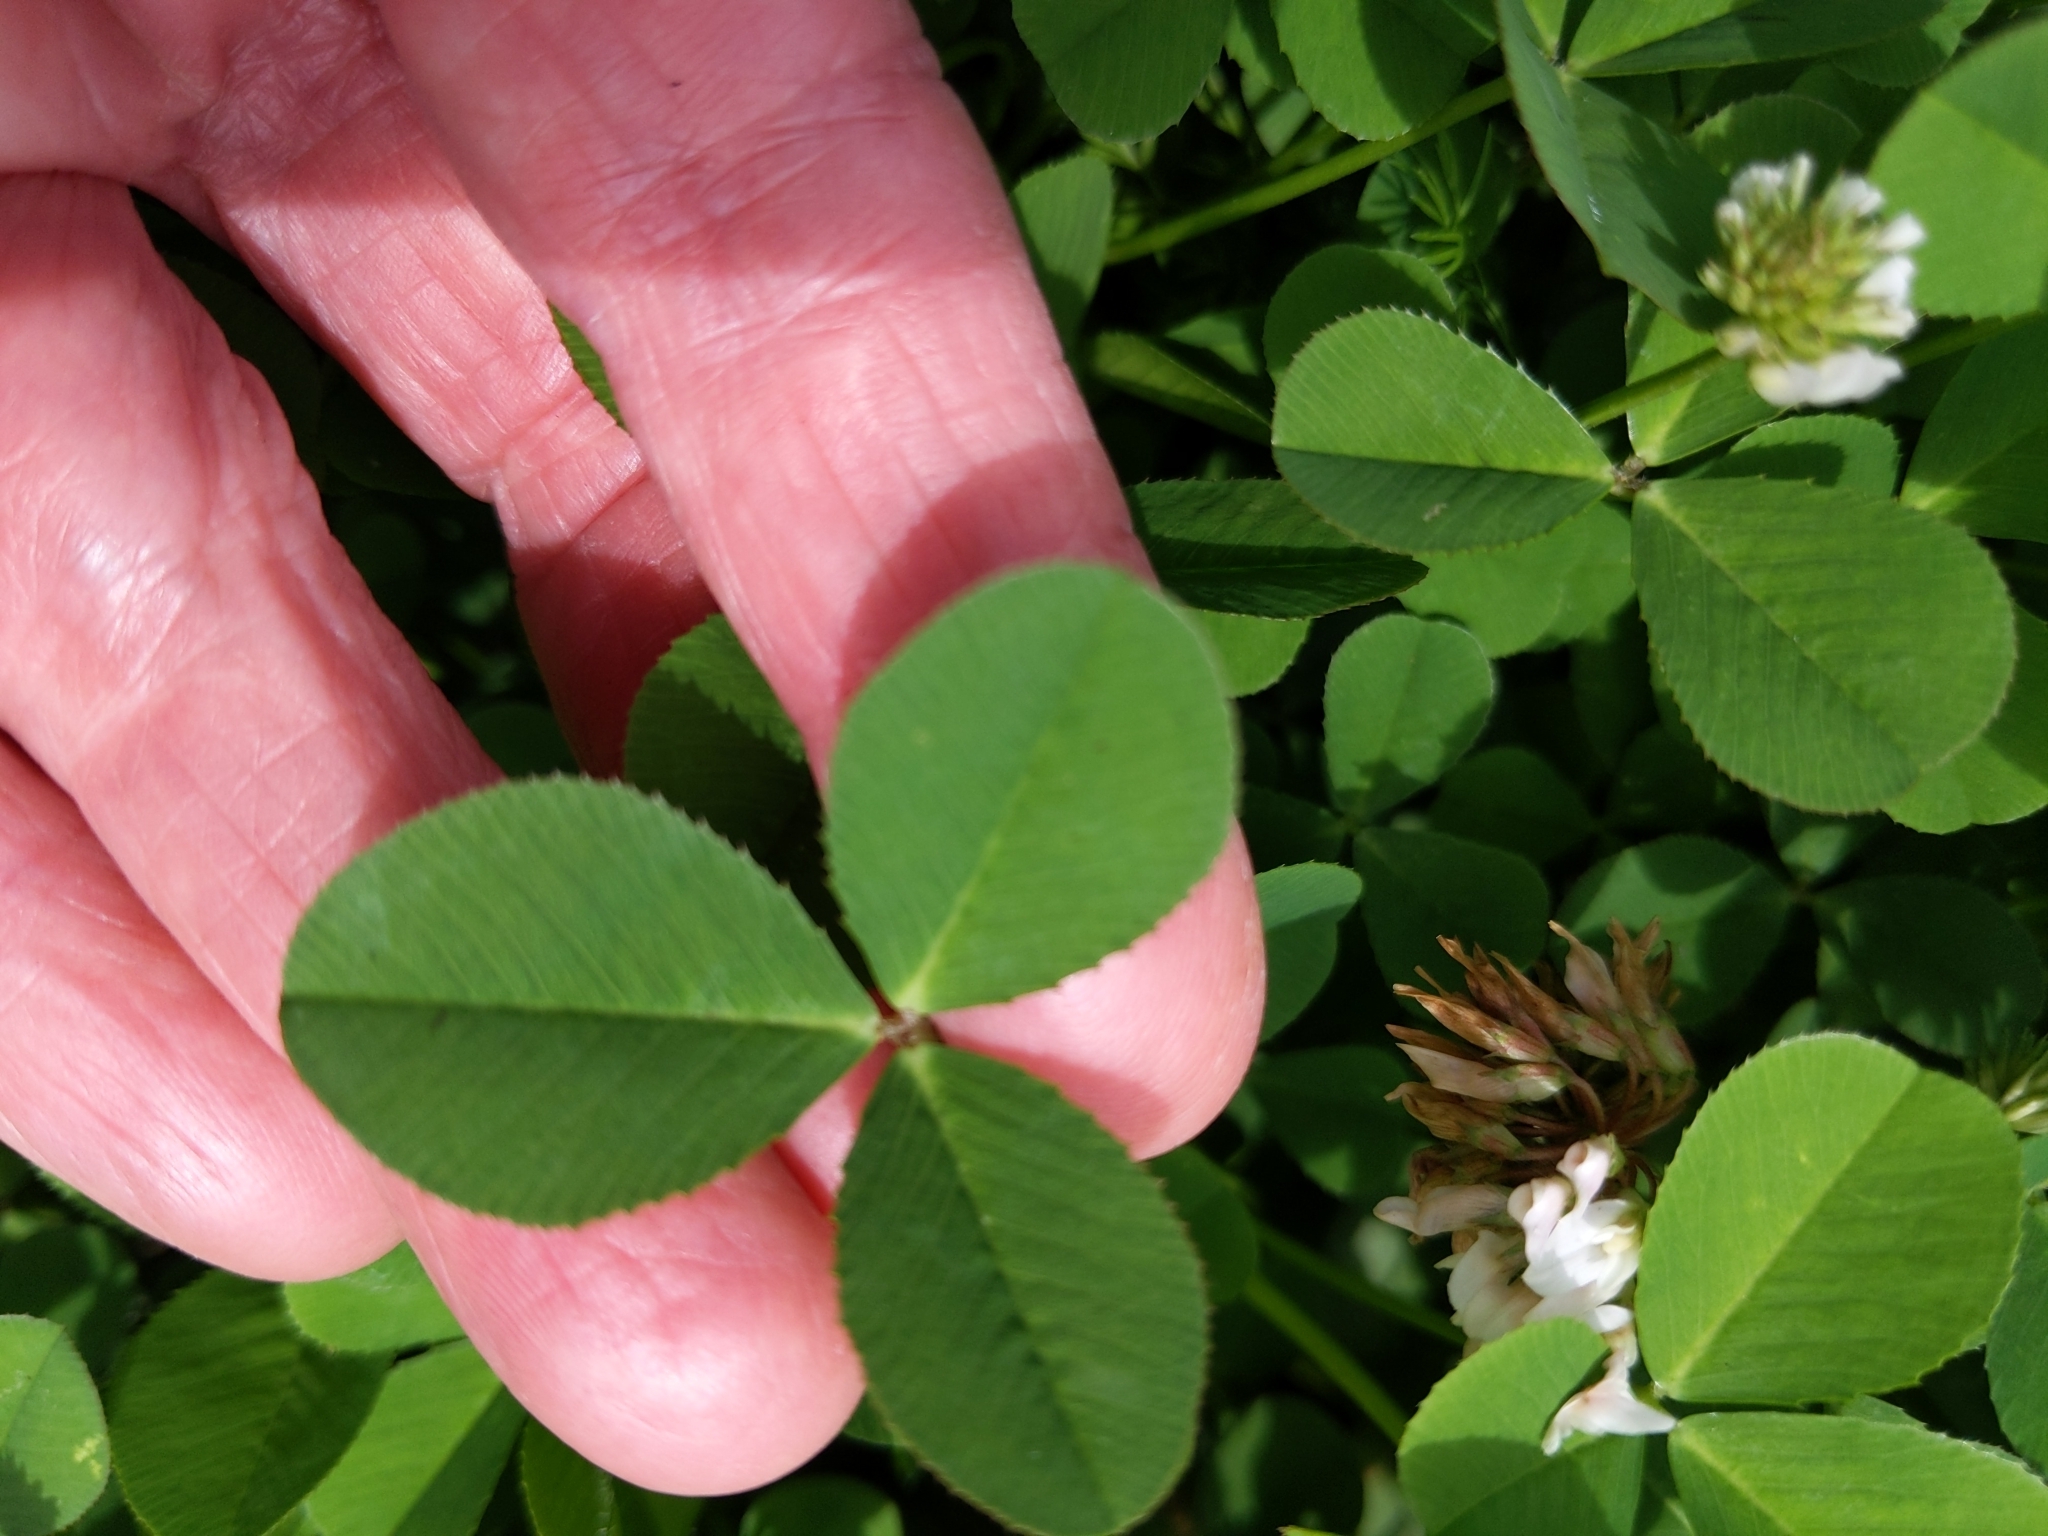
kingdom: Plantae
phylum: Tracheophyta
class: Magnoliopsida
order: Fabales
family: Fabaceae
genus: Trifolium
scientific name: Trifolium repens
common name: White clover
